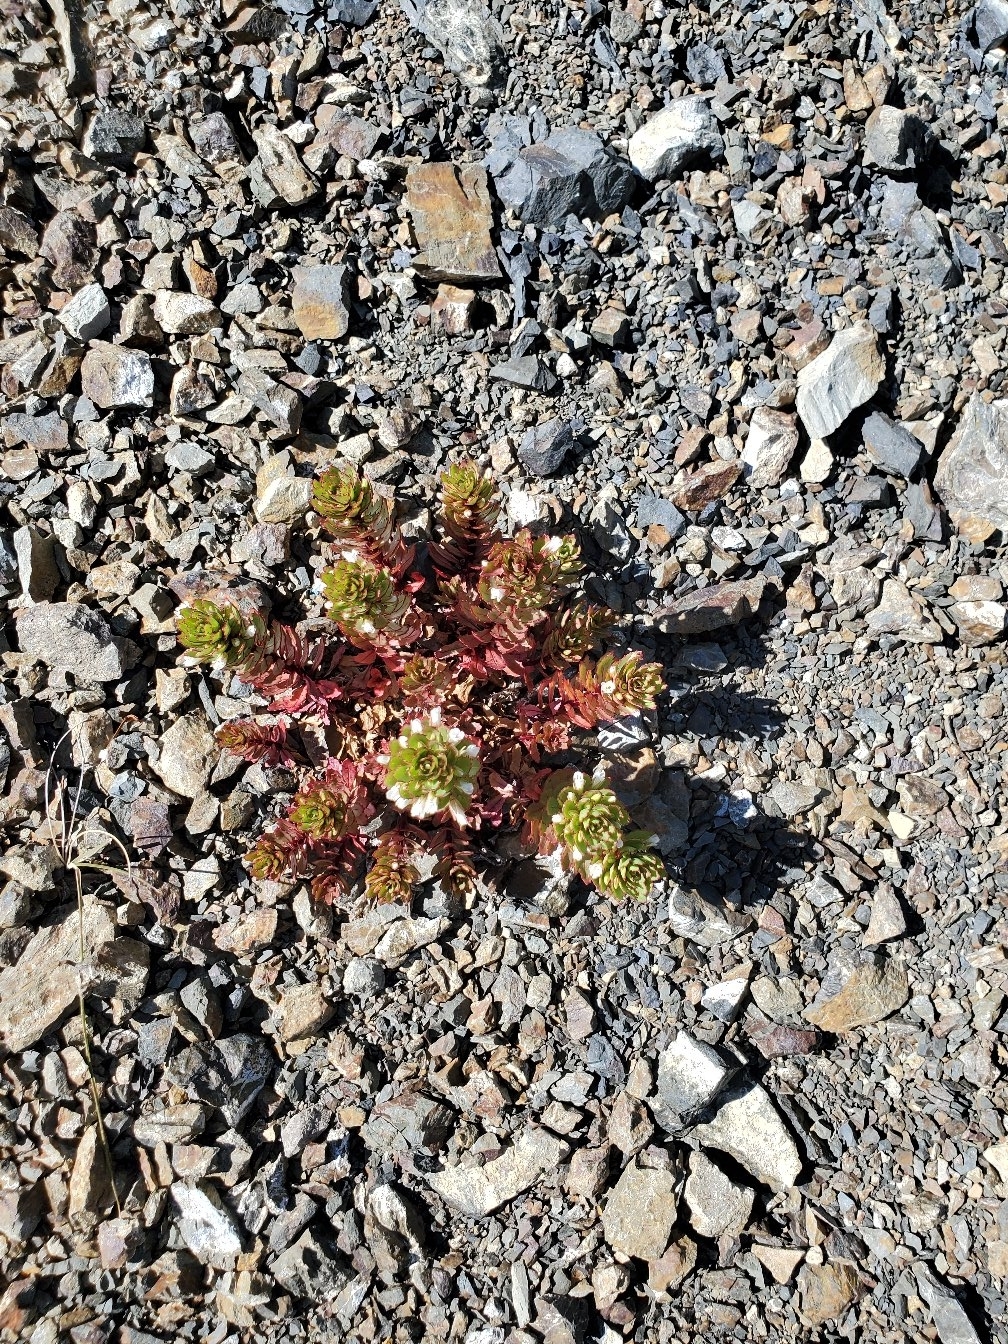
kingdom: Plantae
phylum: Tracheophyta
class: Magnoliopsida
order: Myrtales
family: Onagraceae
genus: Epilobium
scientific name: Epilobium pycnostachyum
